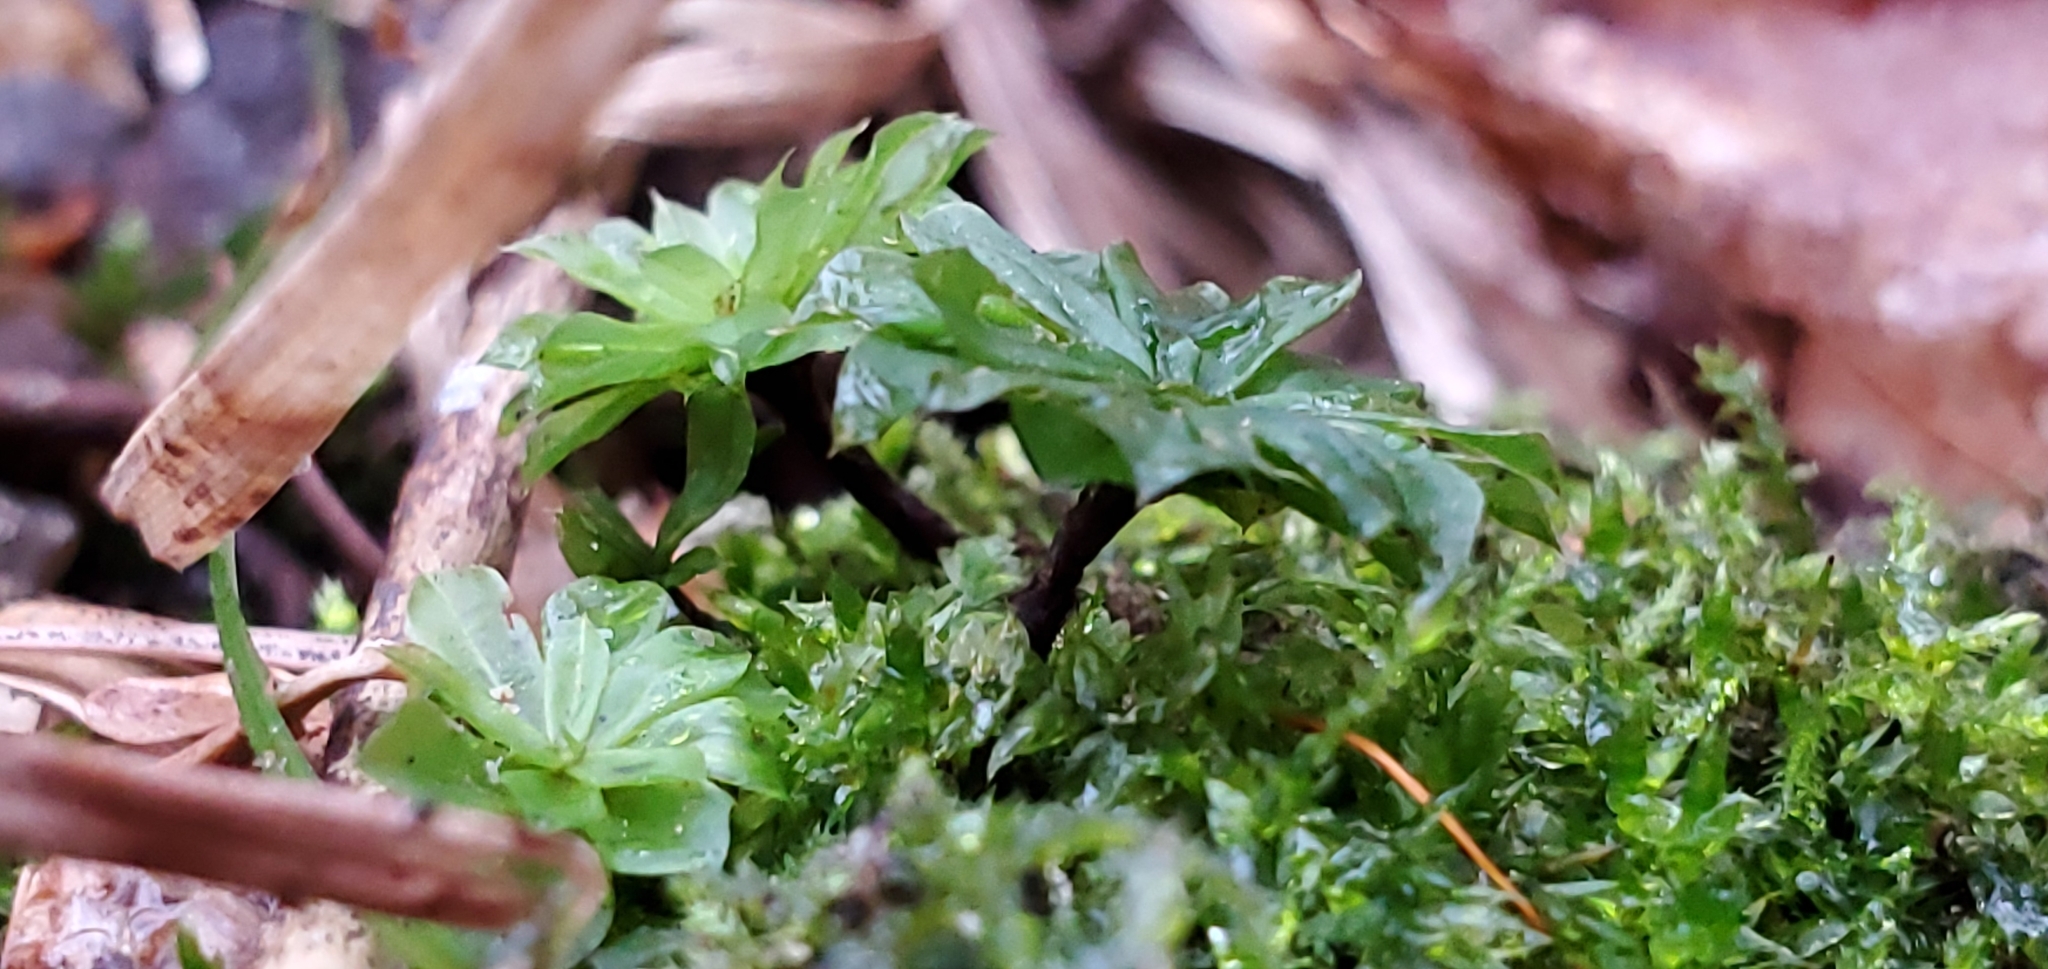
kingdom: Plantae
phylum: Bryophyta
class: Bryopsida
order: Bryales
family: Bryaceae
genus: Rhodobryum
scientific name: Rhodobryum ontariense
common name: Ontario rhodobryum moss
